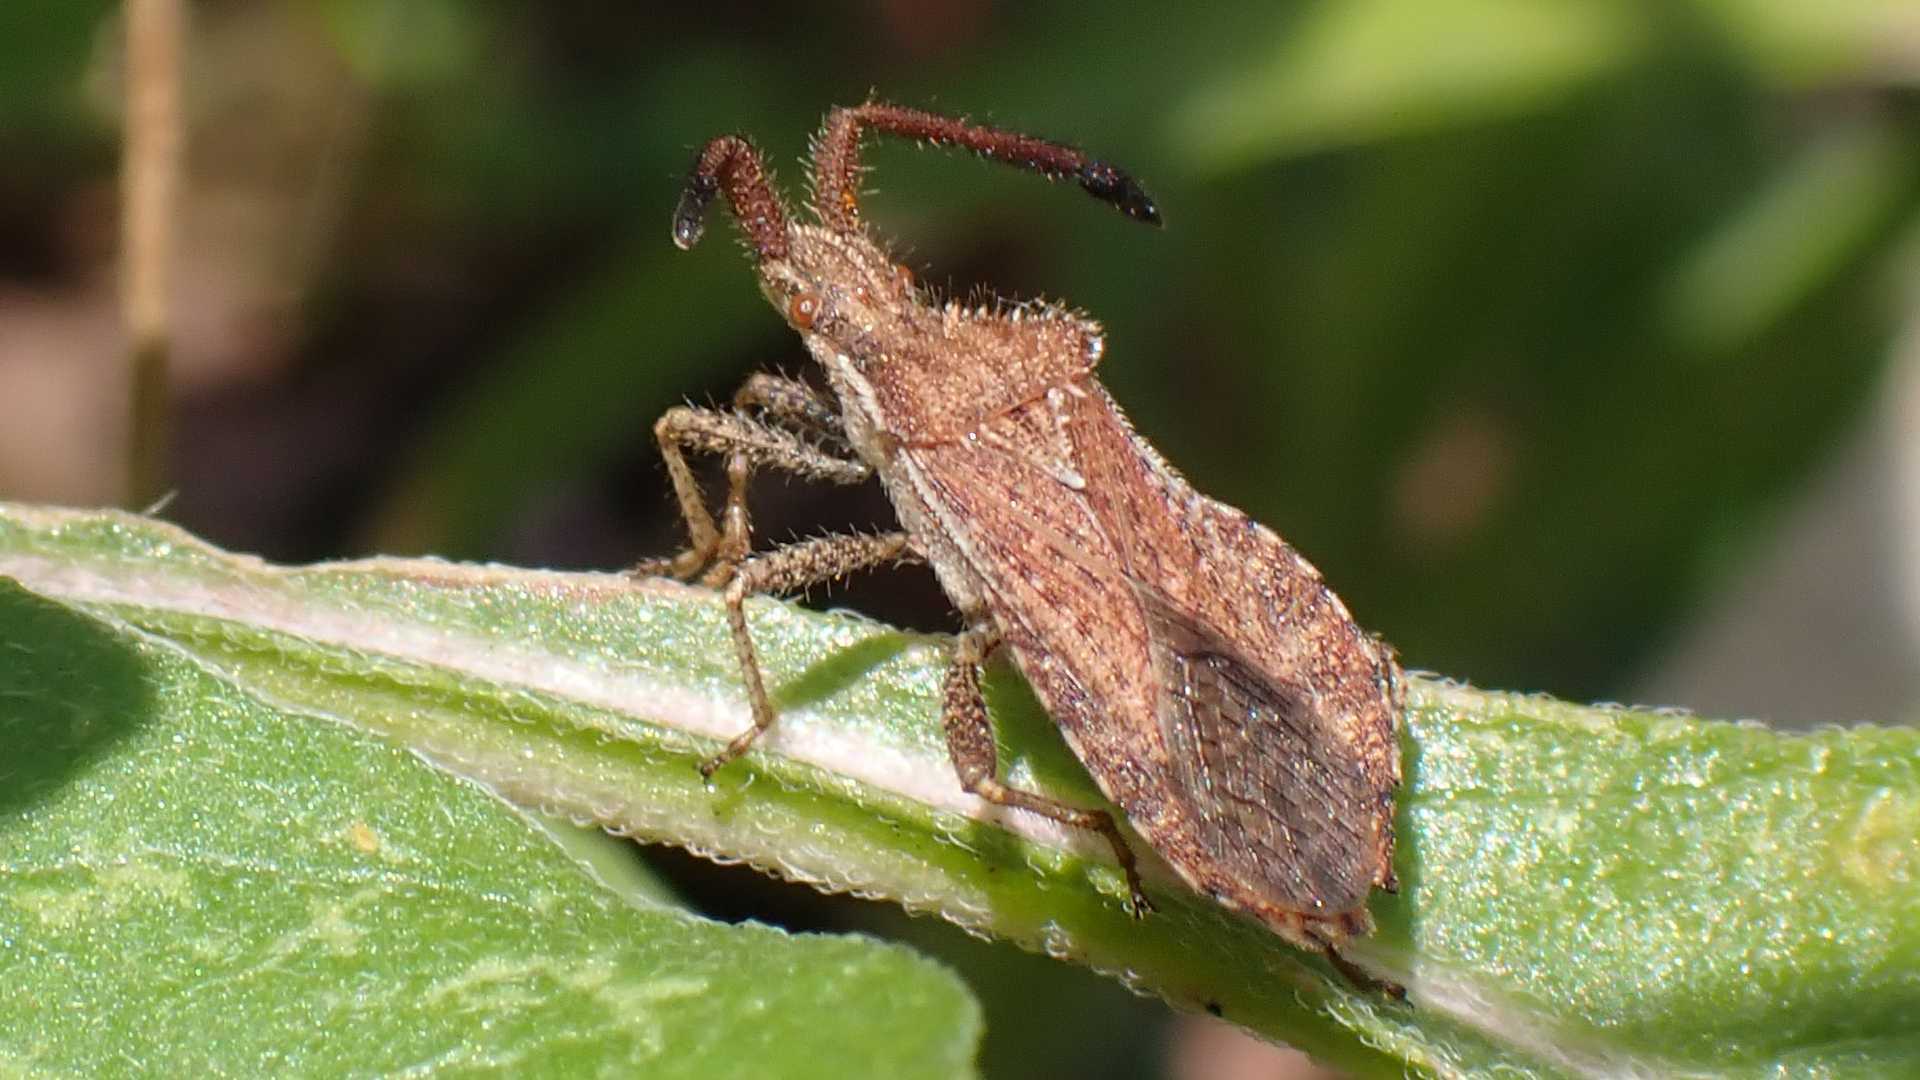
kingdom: Animalia
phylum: Arthropoda
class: Insecta
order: Hemiptera
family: Coreidae
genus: Coriomeris
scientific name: Coriomeris denticulatus
